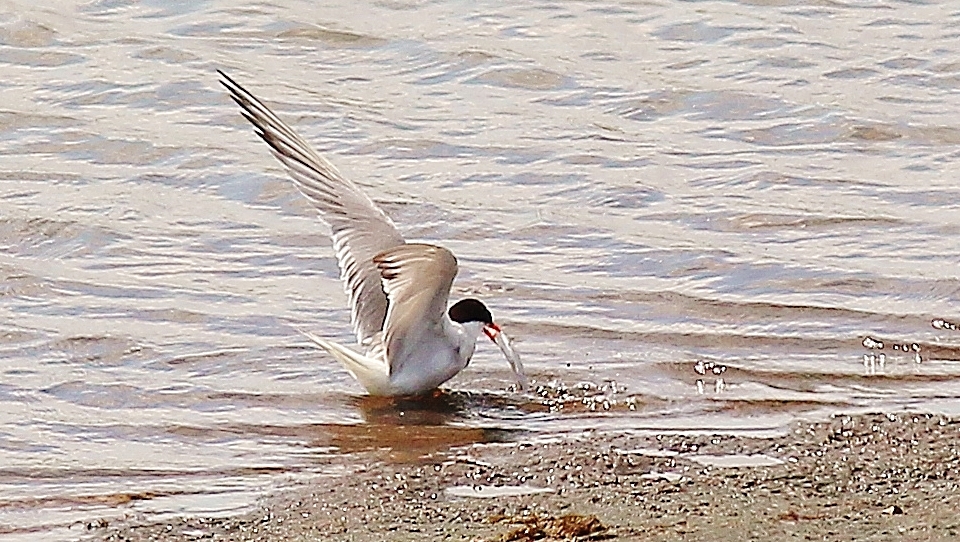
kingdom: Animalia
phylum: Chordata
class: Aves
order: Charadriiformes
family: Laridae
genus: Sterna
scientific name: Sterna hirundo
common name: Common tern
